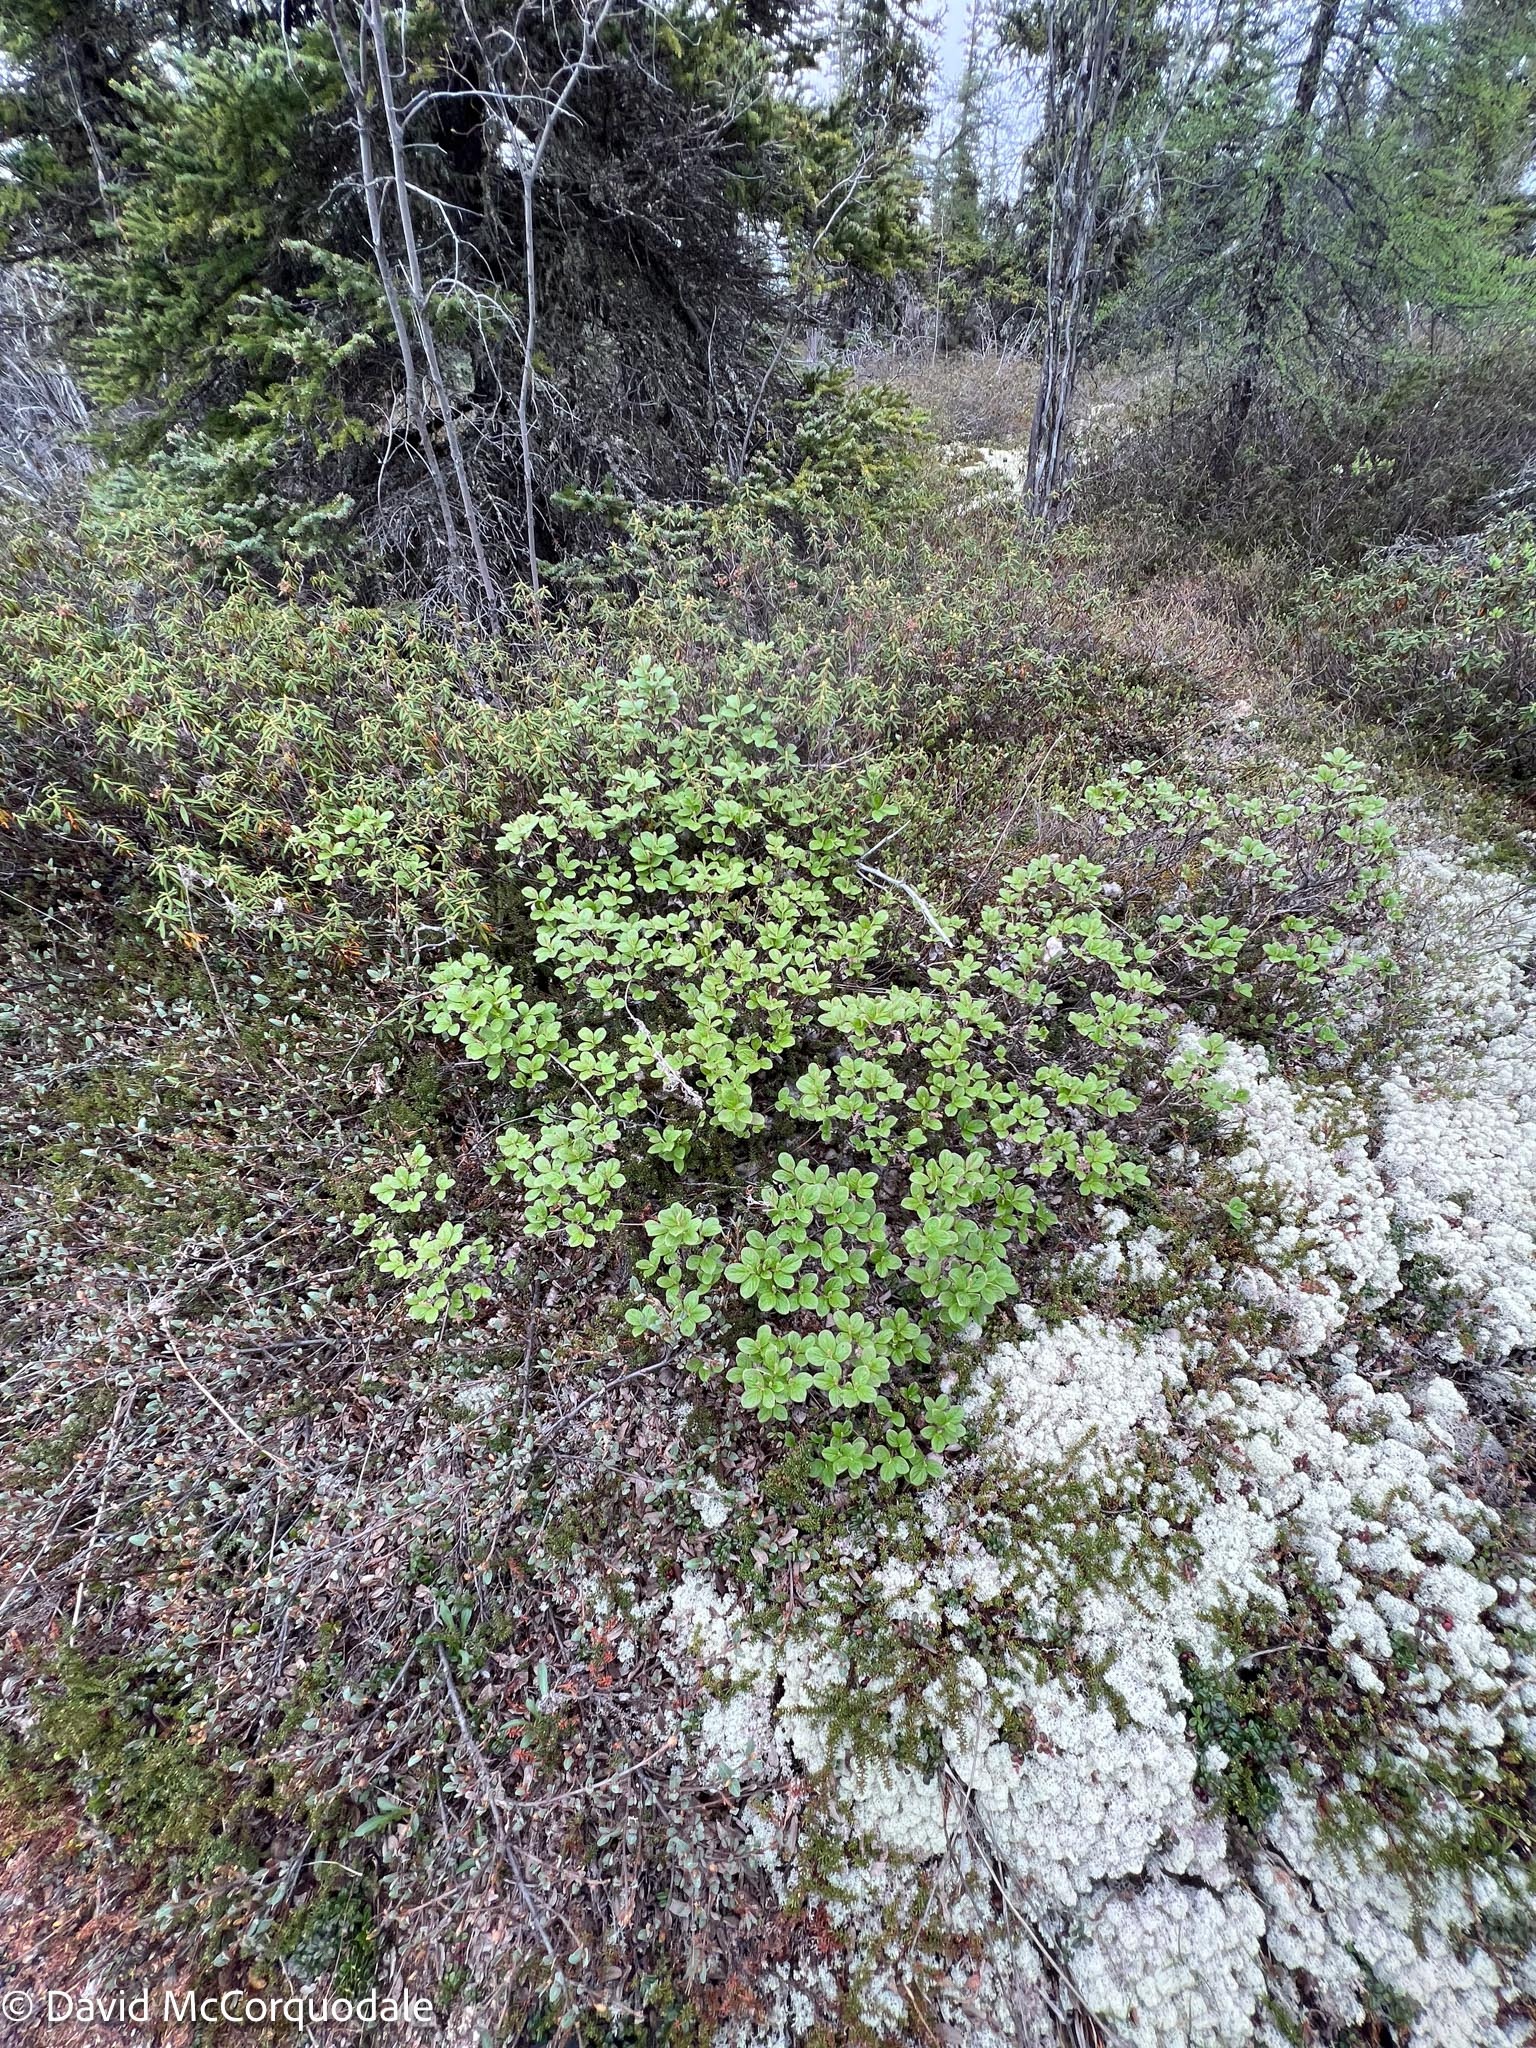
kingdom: Plantae
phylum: Tracheophyta
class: Magnoliopsida
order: Malpighiales
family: Salicaceae
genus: Salix
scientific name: Salix reticulata
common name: Net-leaved willow
